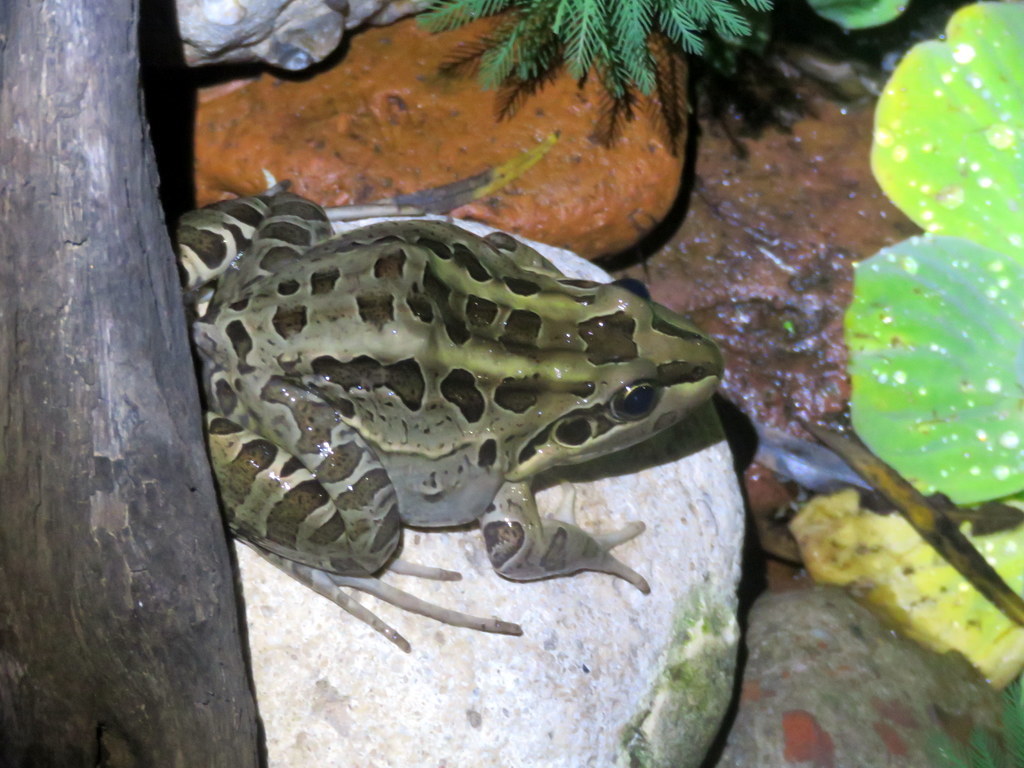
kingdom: Animalia
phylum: Chordata
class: Amphibia
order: Anura
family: Leptodactylidae
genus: Leptodactylus
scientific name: Leptodactylus luctator
